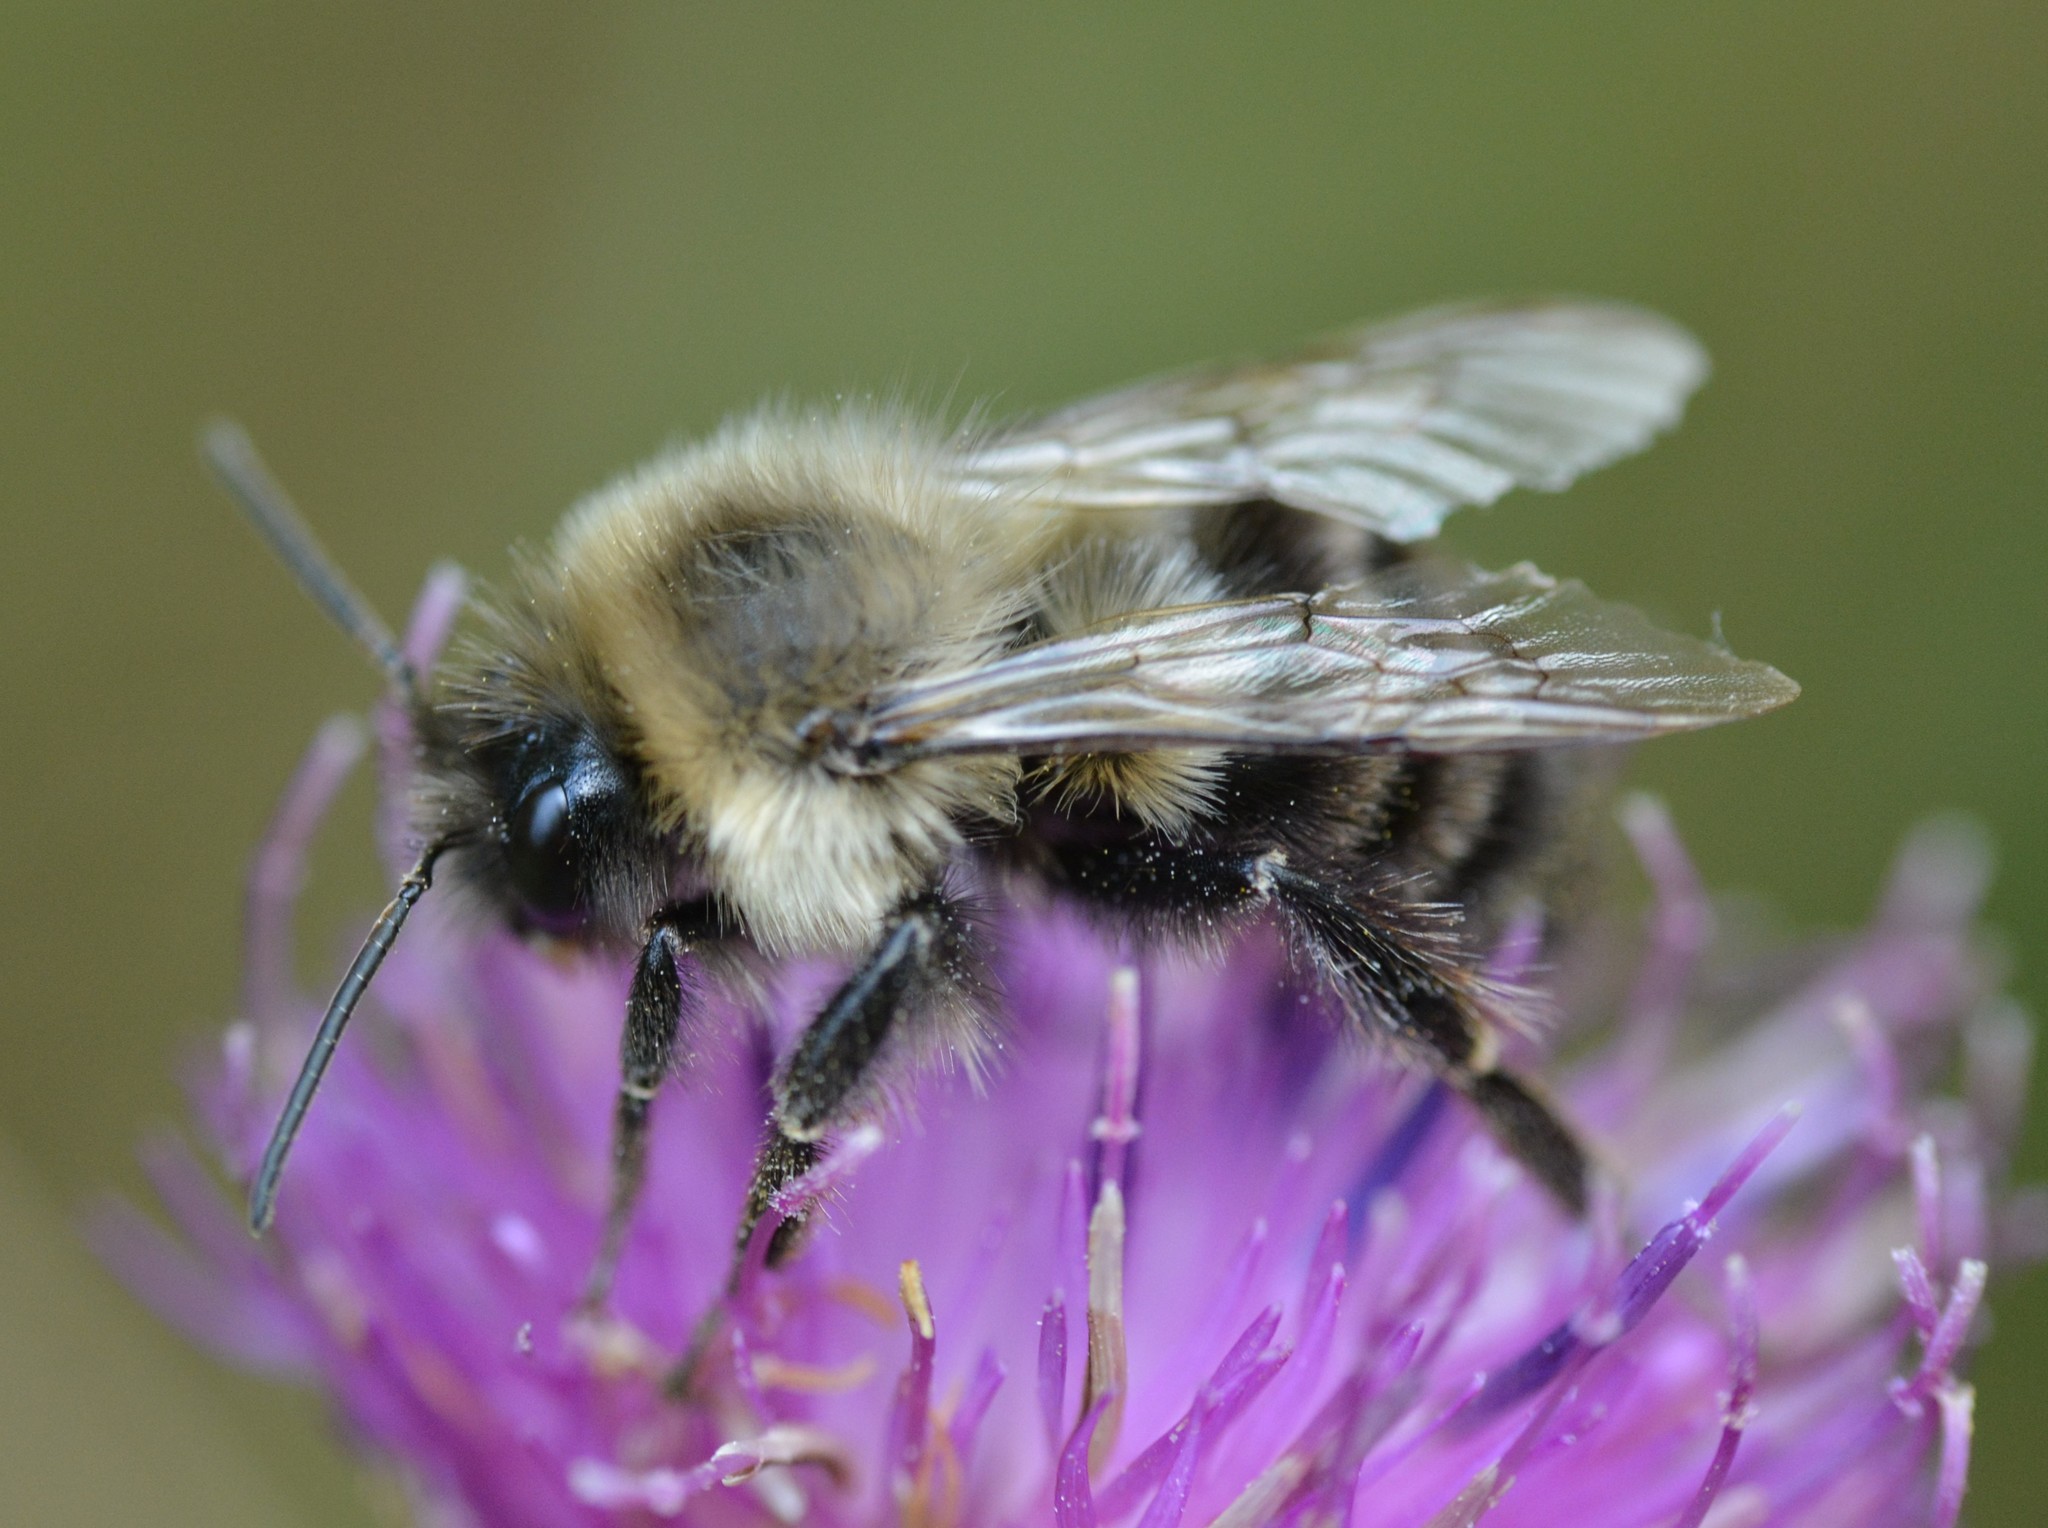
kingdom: Animalia
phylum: Arthropoda
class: Insecta
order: Hymenoptera
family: Apidae
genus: Bombus
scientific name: Bombus impatiens
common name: Common eastern bumble bee
